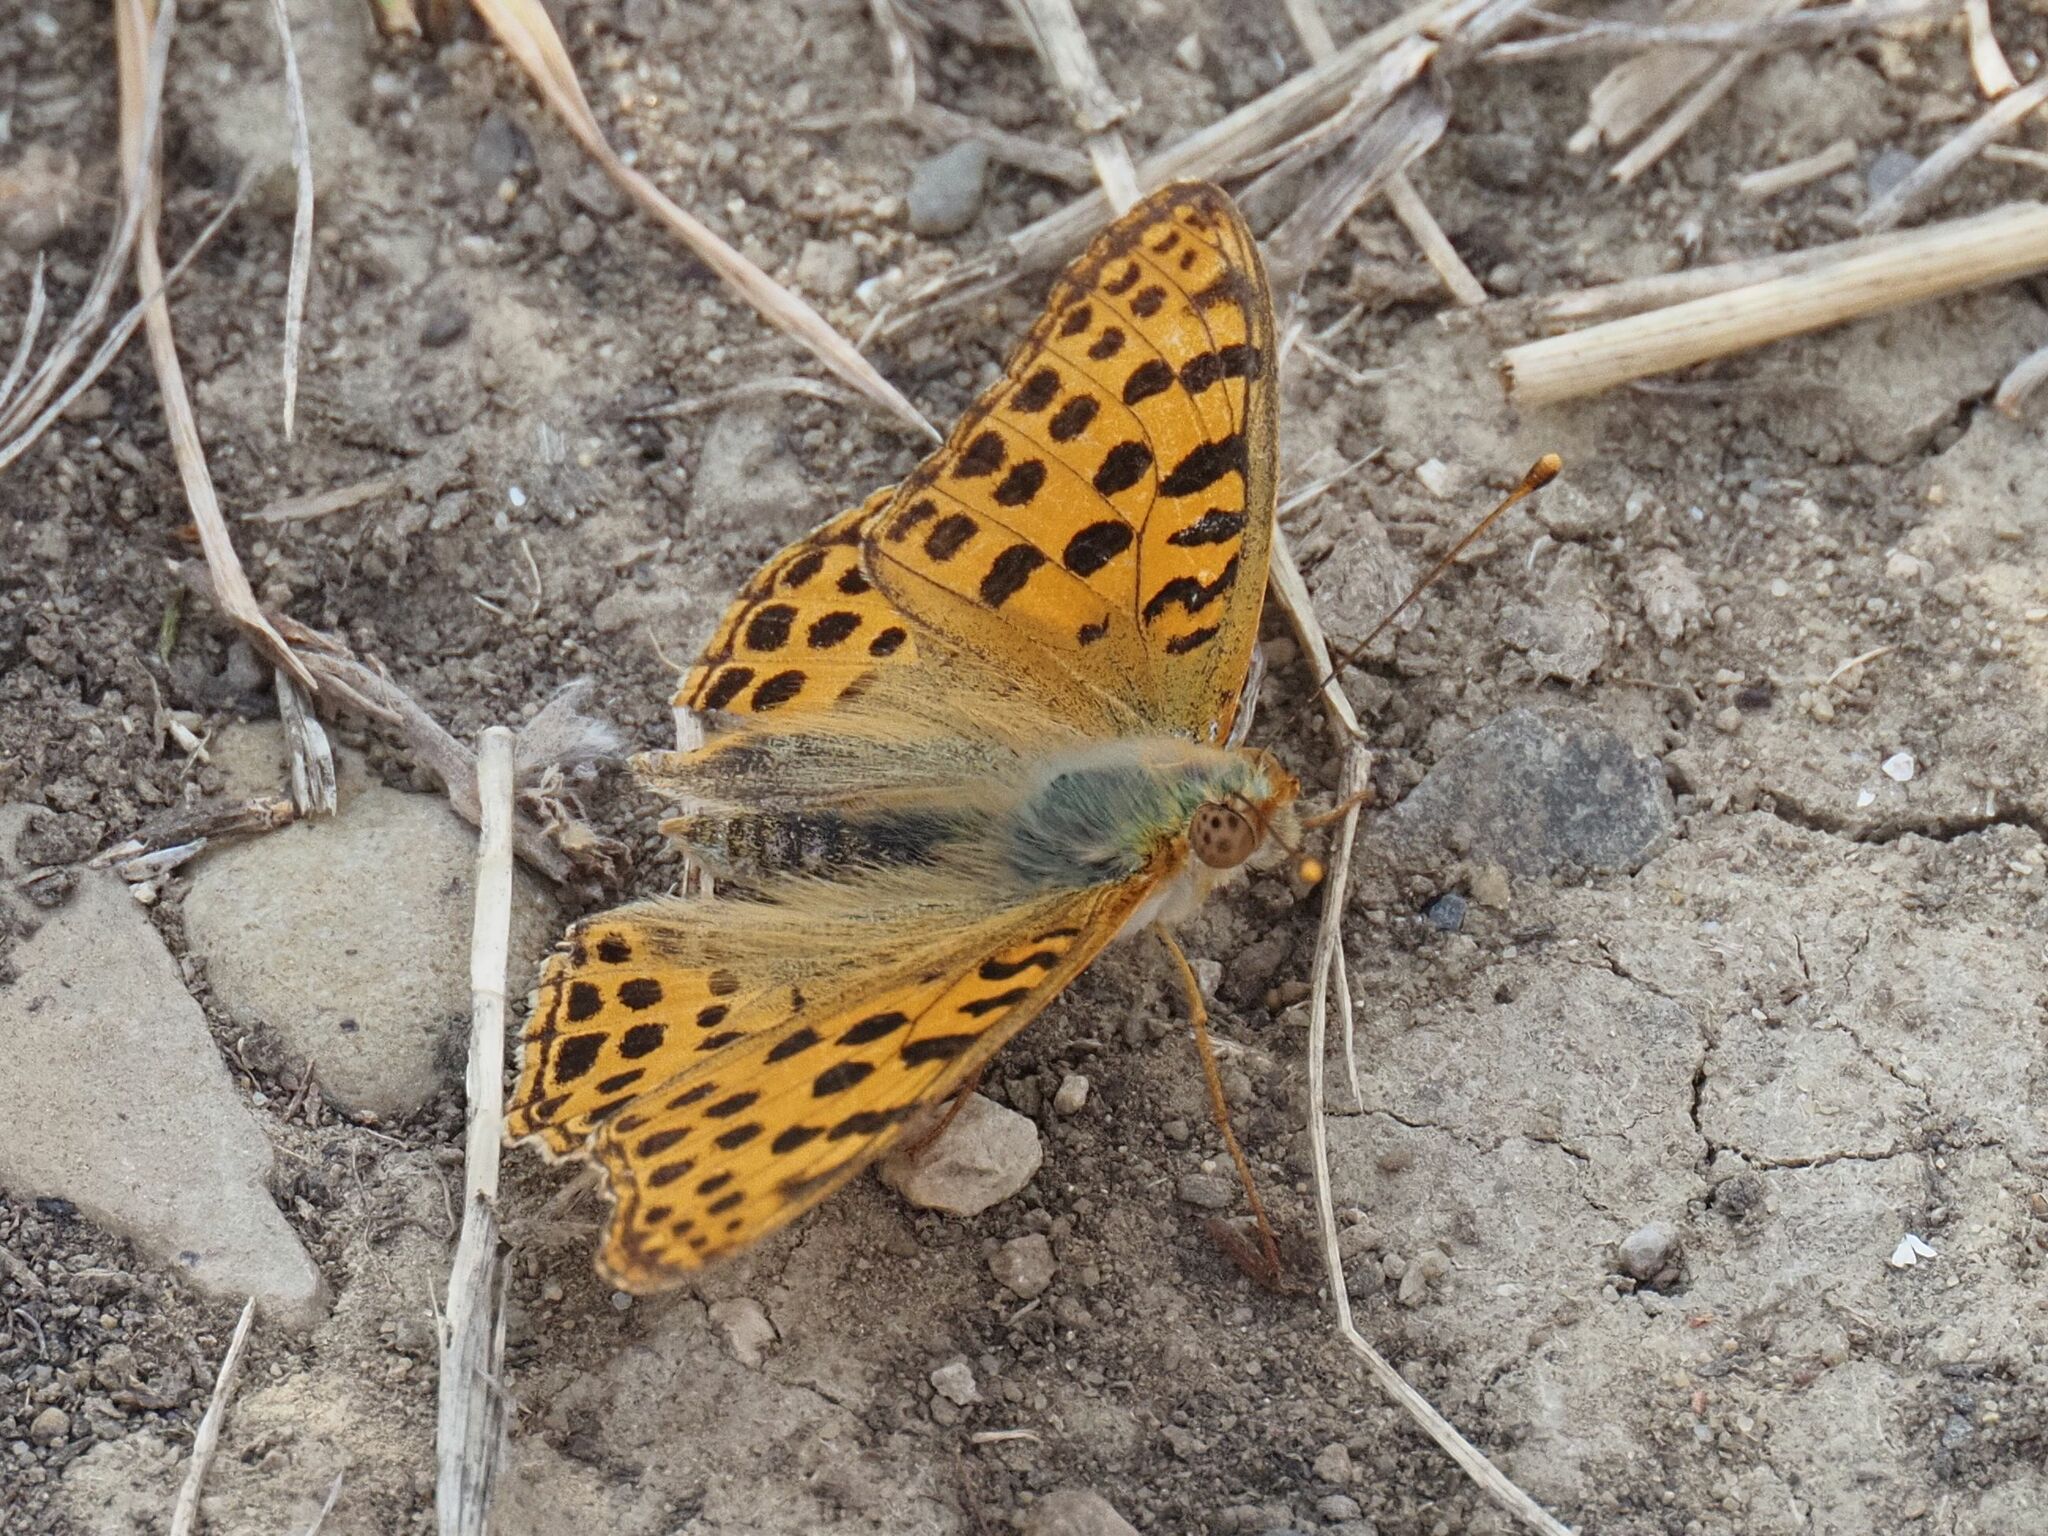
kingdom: Animalia
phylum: Arthropoda
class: Insecta
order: Lepidoptera
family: Nymphalidae
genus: Issoria
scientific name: Issoria lathonia
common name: Queen of spain fritillary
